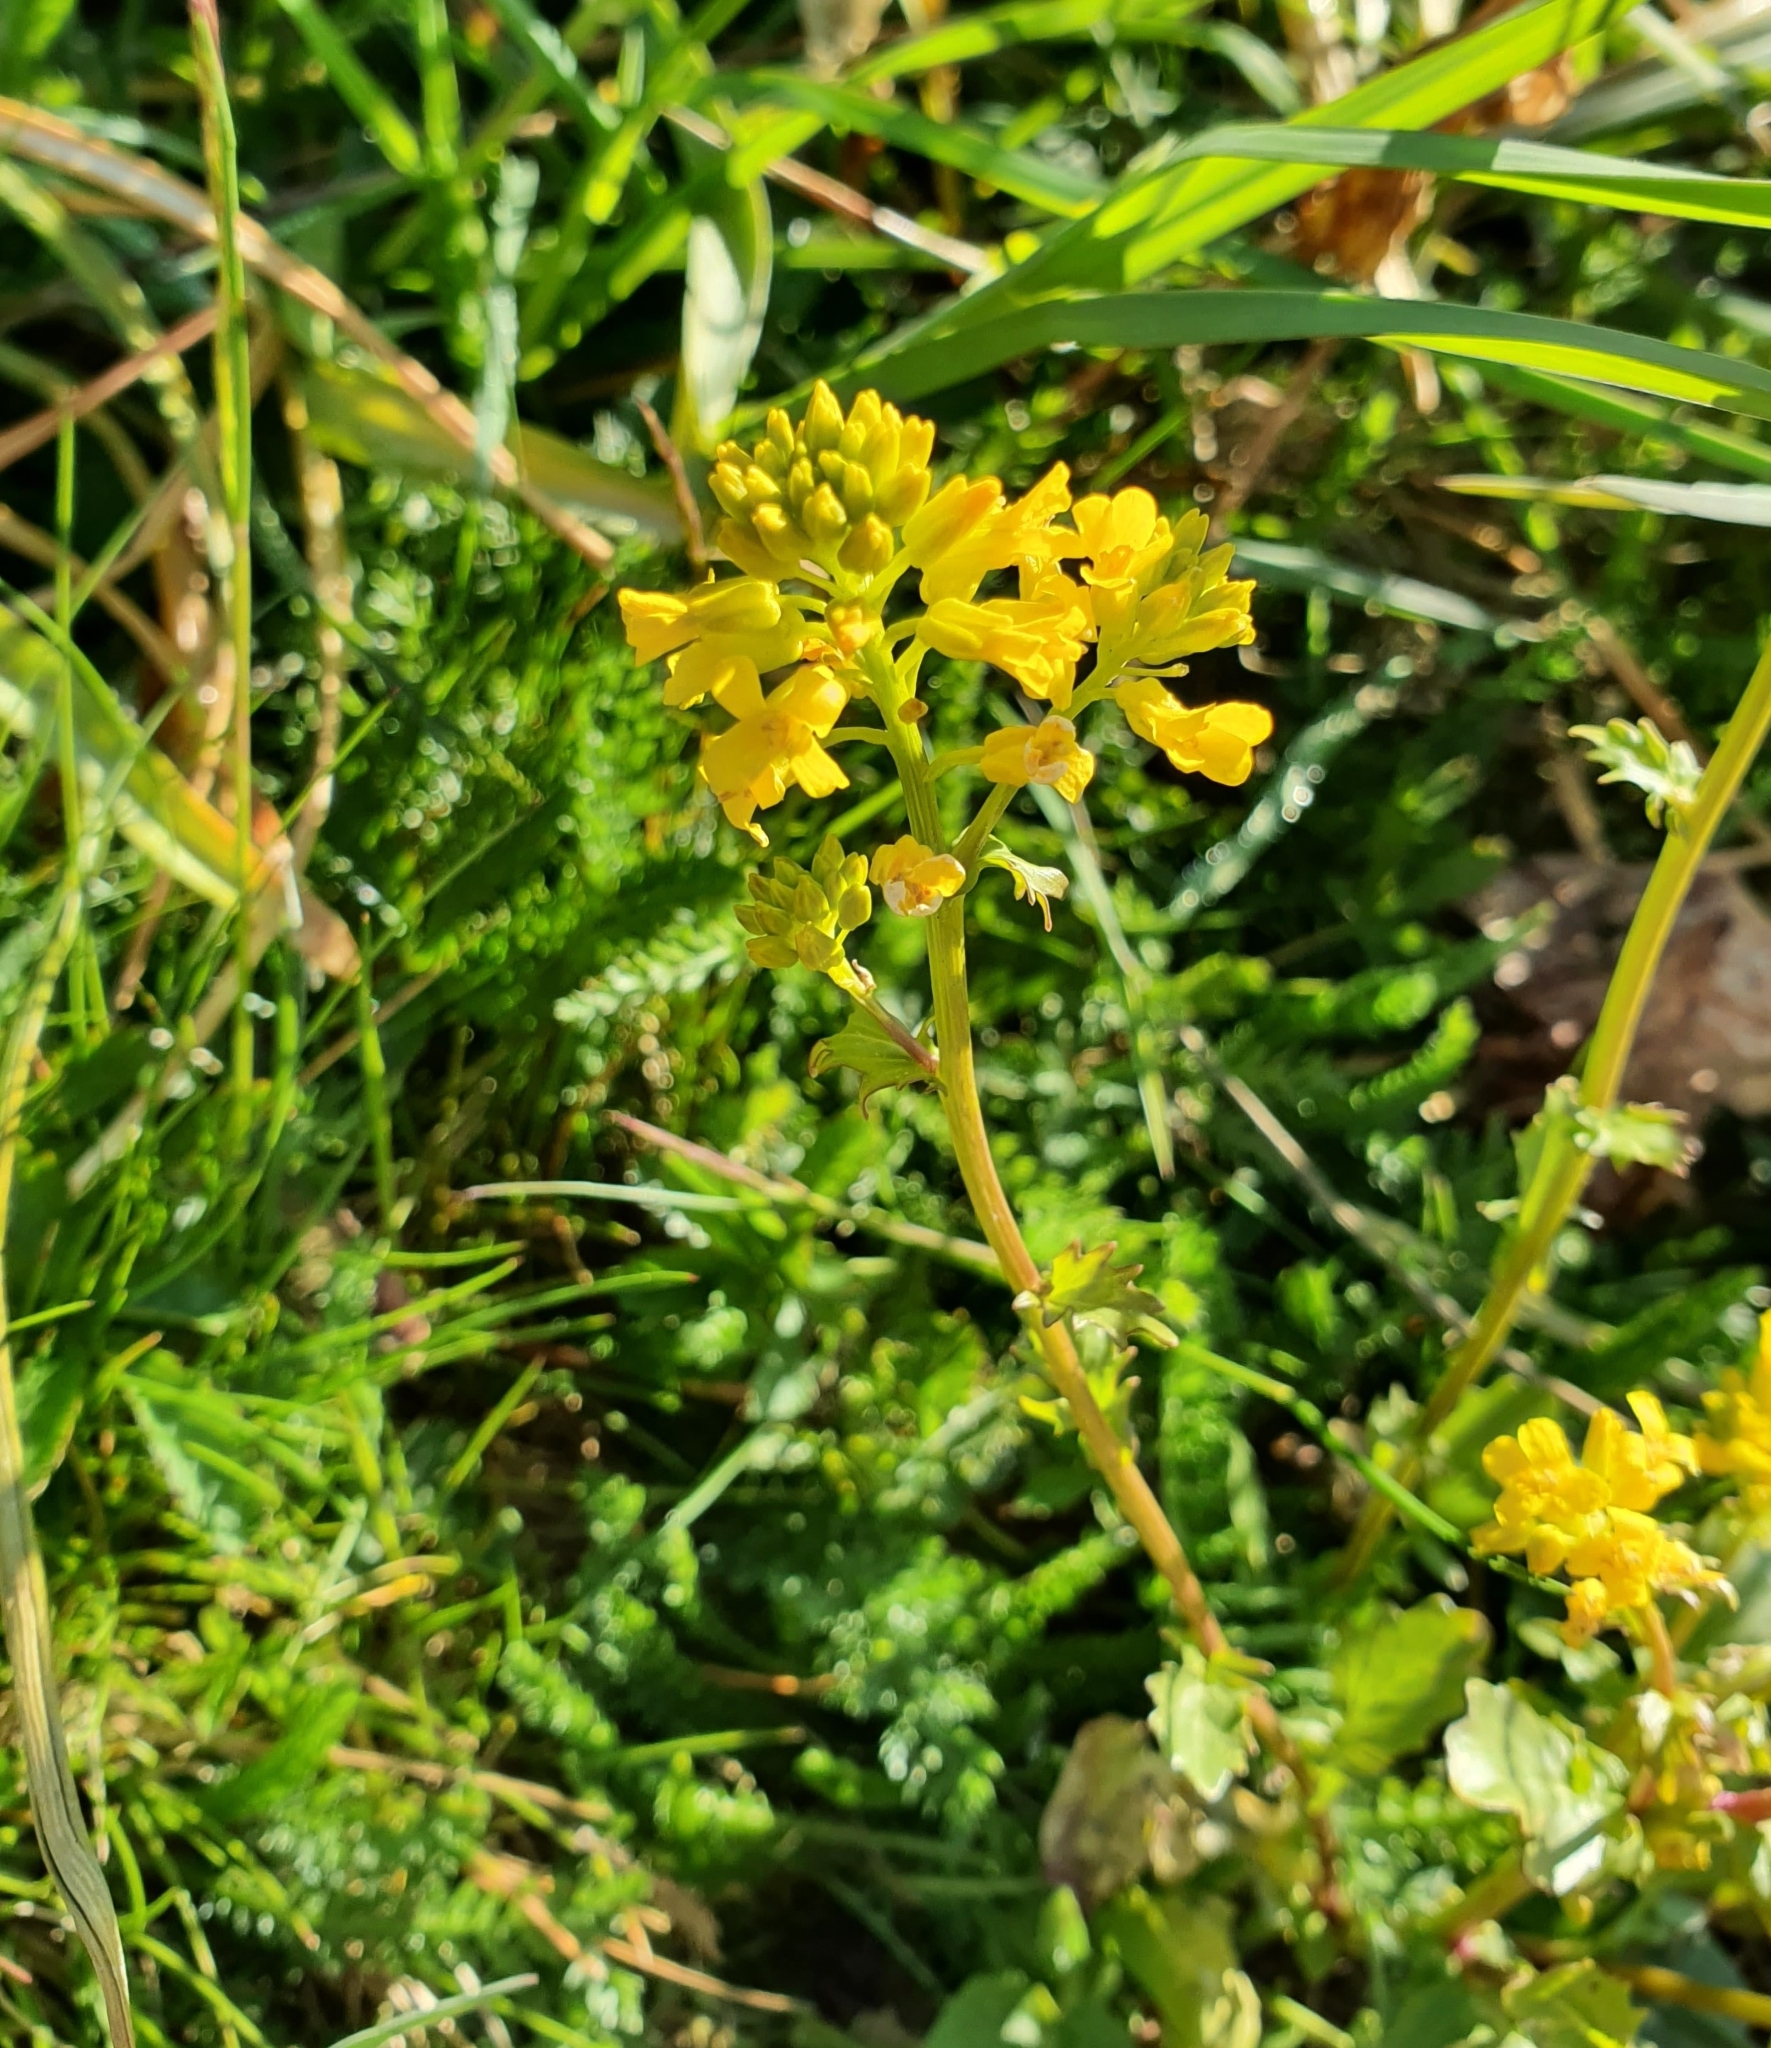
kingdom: Plantae
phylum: Tracheophyta
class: Magnoliopsida
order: Brassicales
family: Brassicaceae
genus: Barbarea
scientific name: Barbarea vulgaris
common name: Cressy-greens
